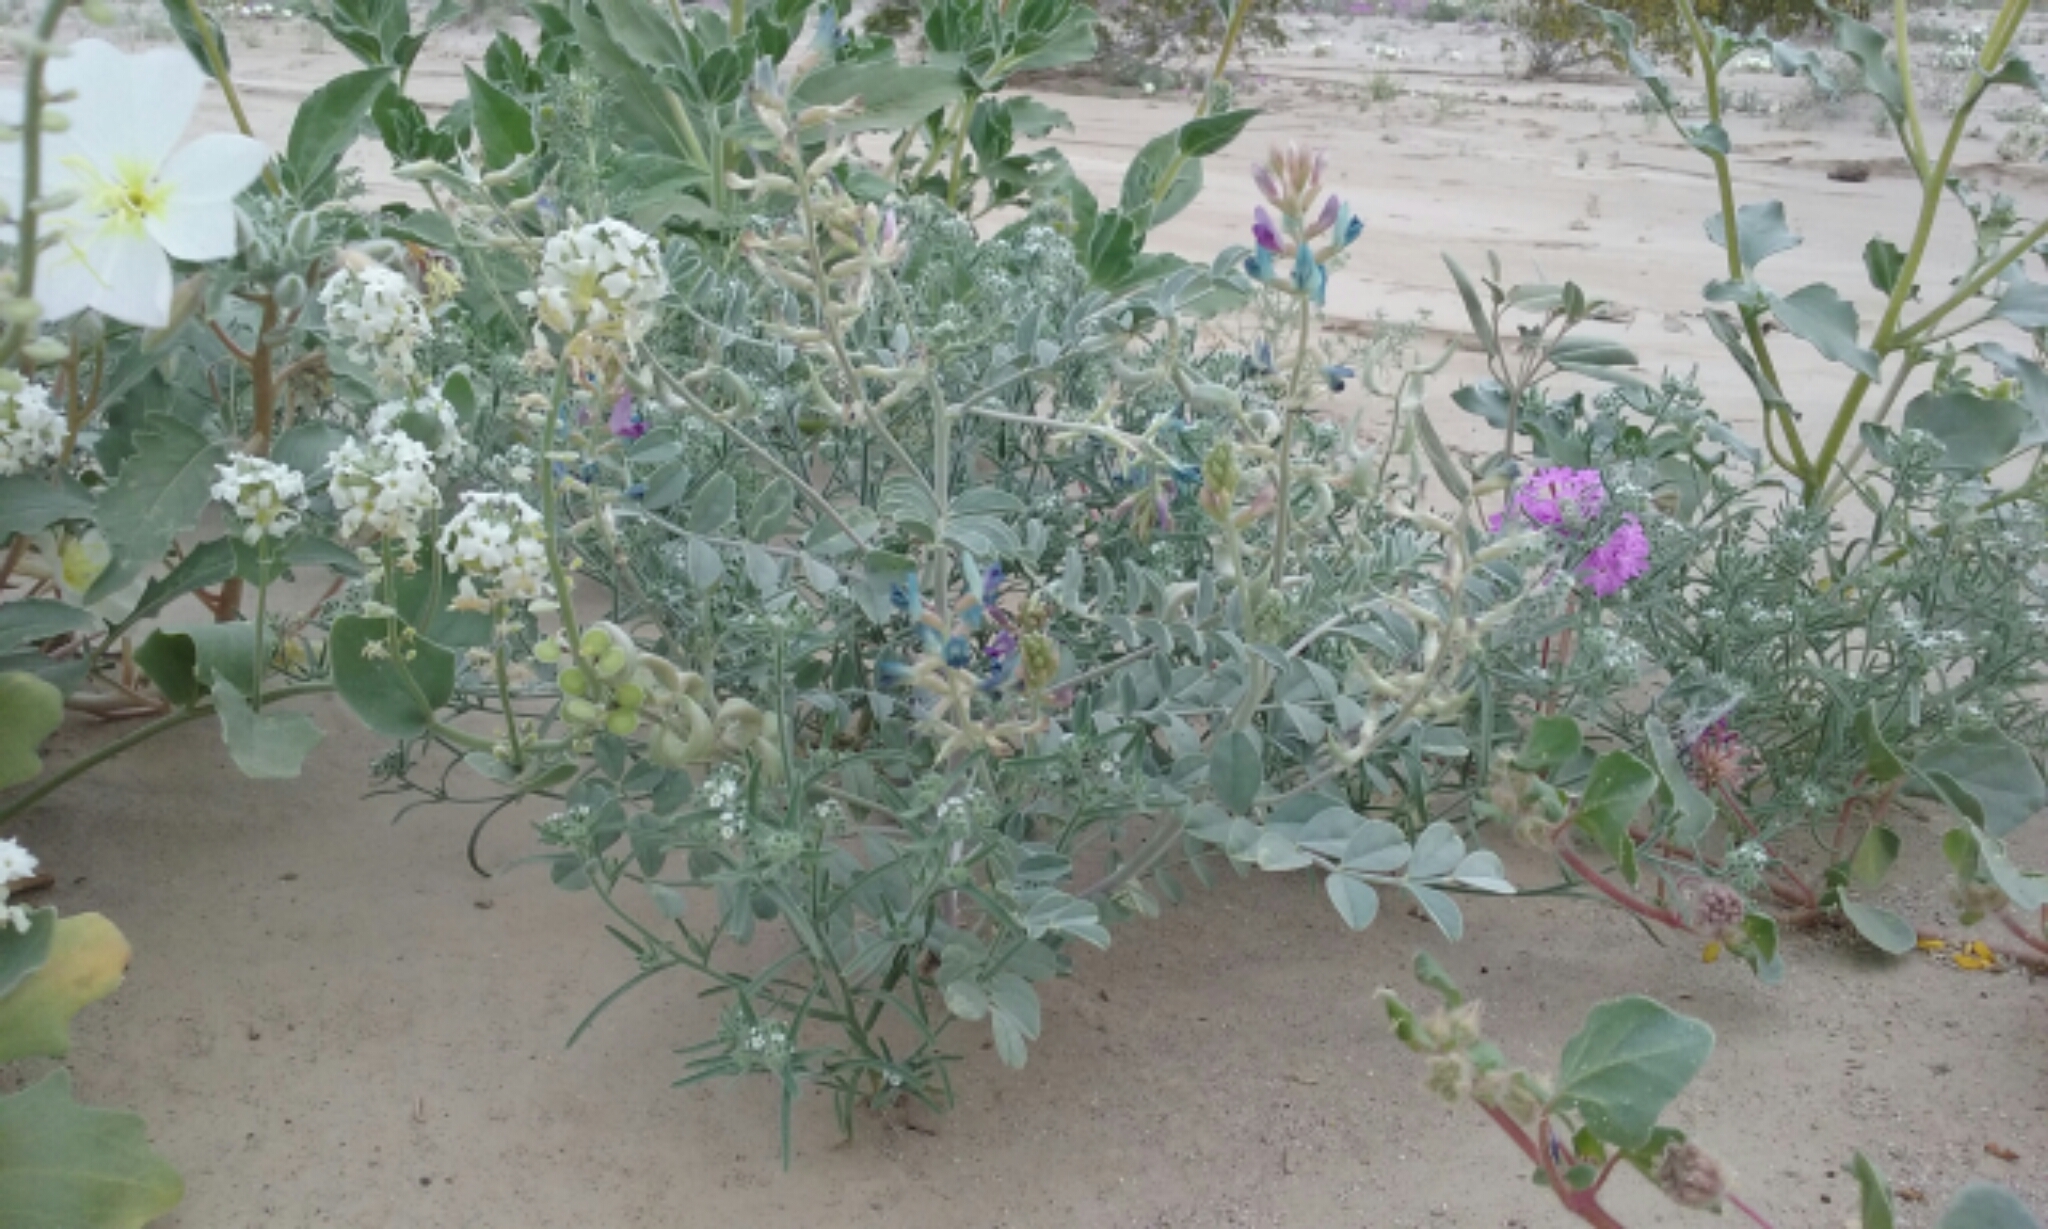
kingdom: Plantae
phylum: Tracheophyta
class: Magnoliopsida
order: Fabales
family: Fabaceae
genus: Astragalus
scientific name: Astragalus lentiginosus
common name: Freckled milkvetch
